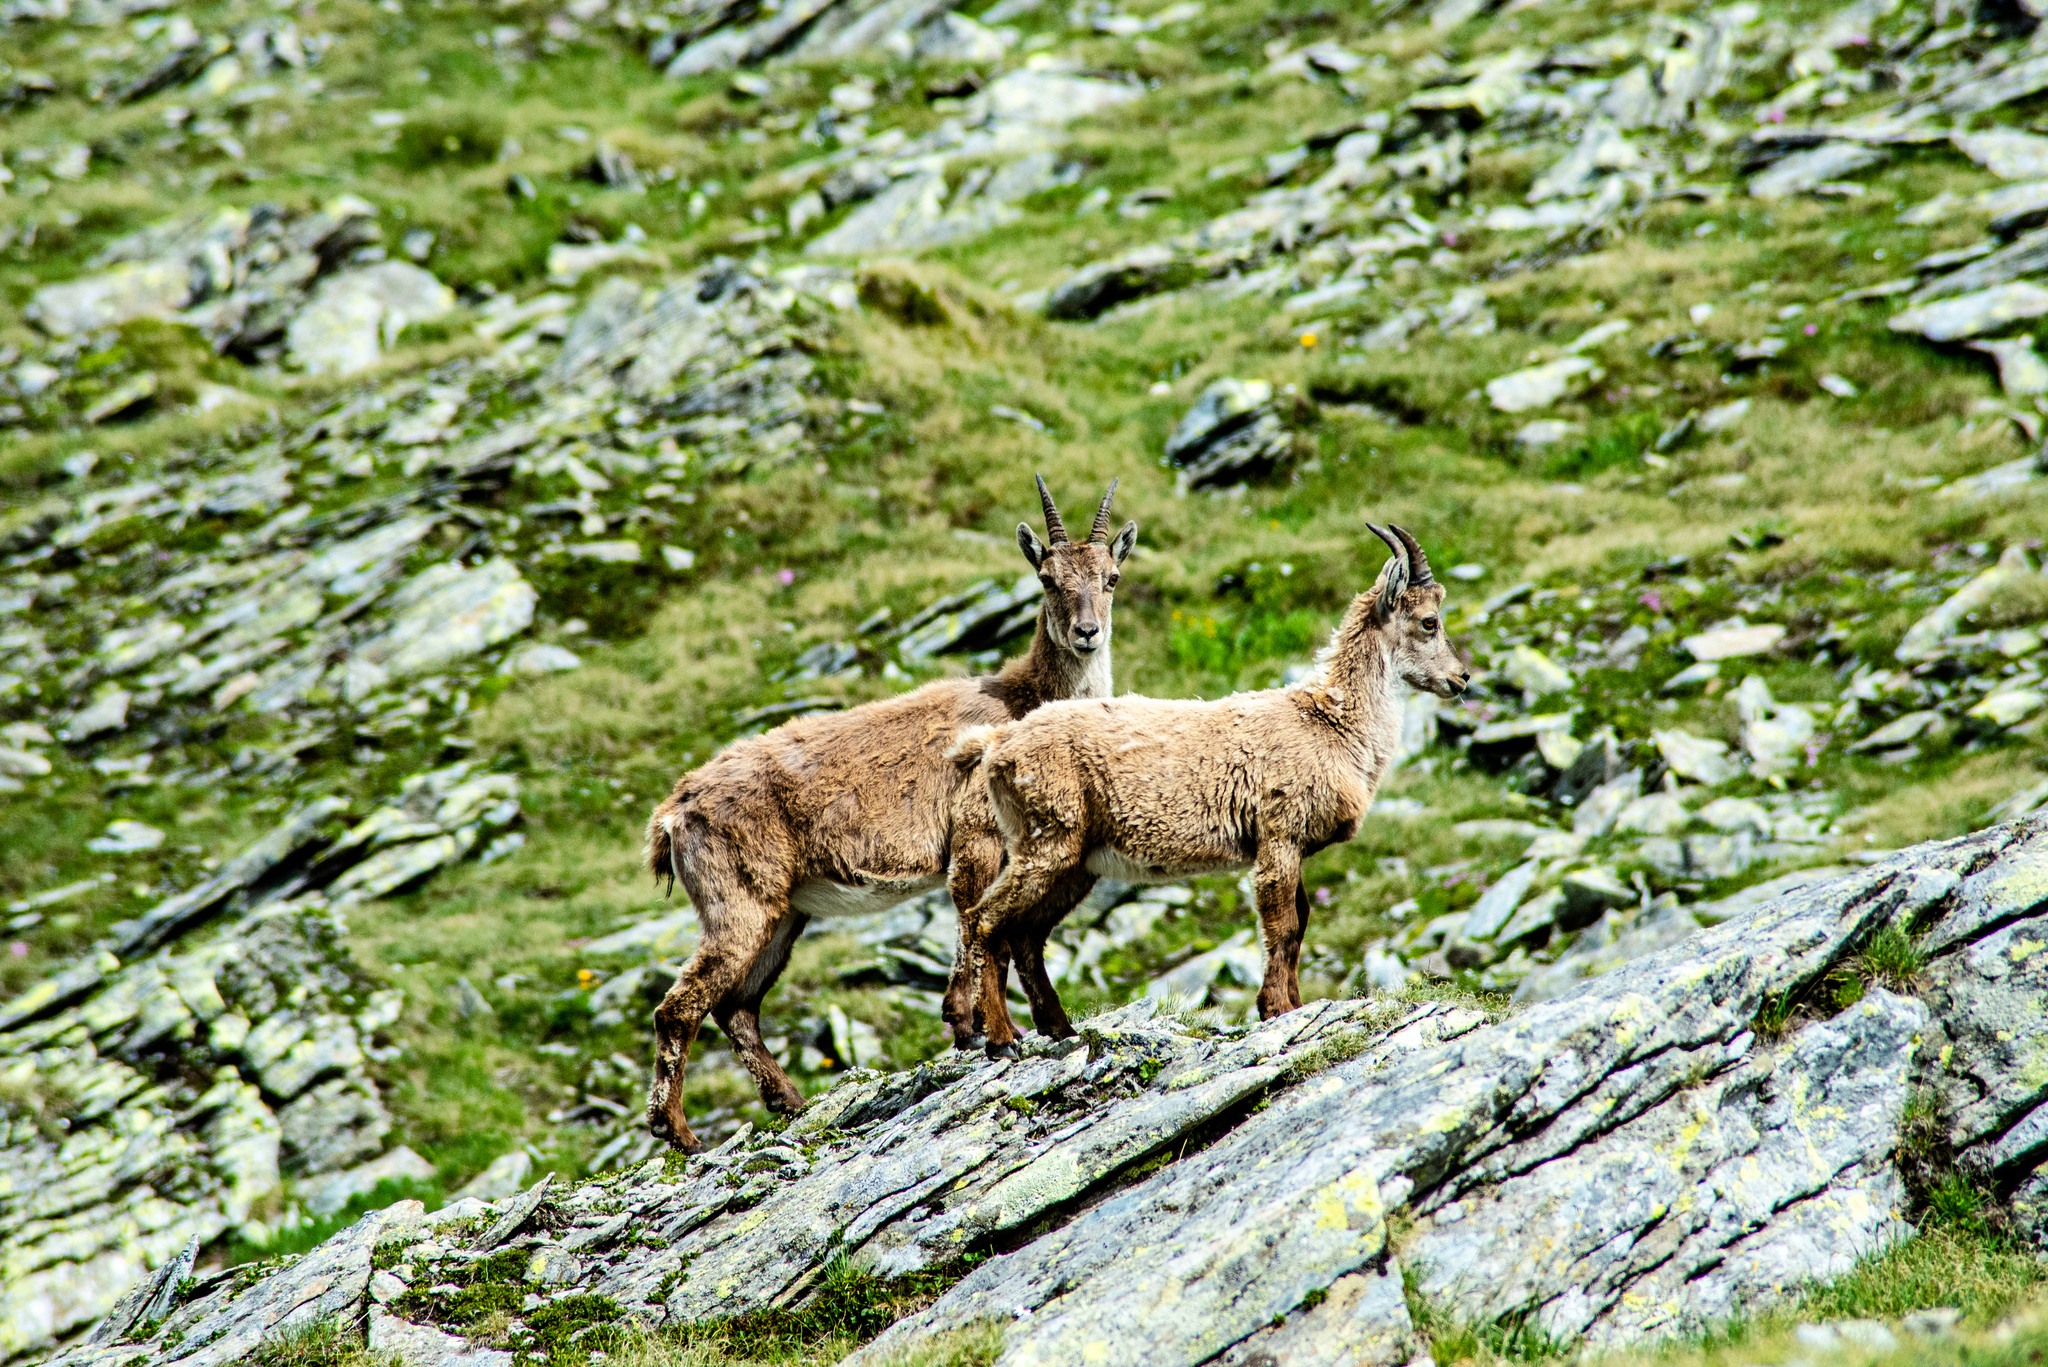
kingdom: Animalia
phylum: Chordata
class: Mammalia
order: Artiodactyla
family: Bovidae
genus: Capra
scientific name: Capra ibex
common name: Alpine ibex
